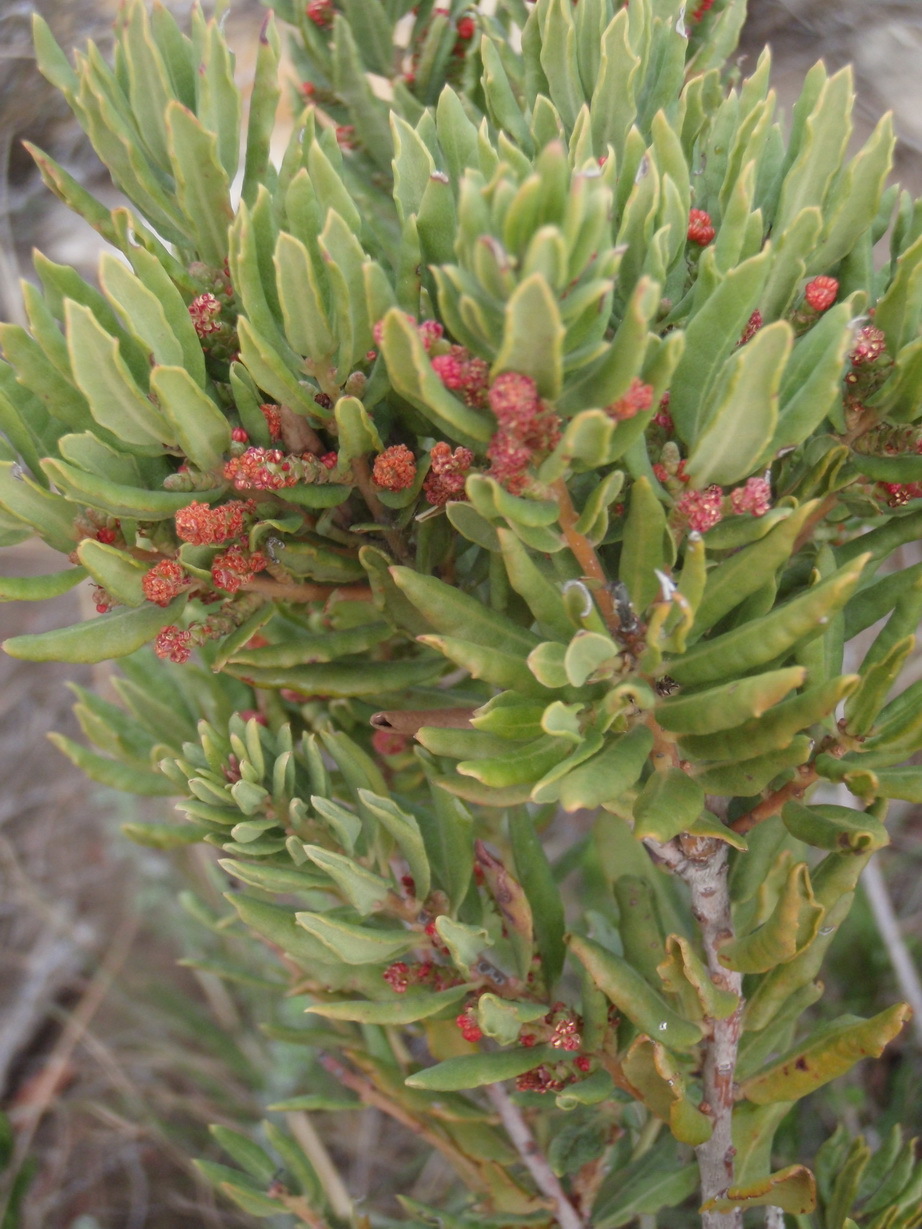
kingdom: Plantae
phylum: Tracheophyta
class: Magnoliopsida
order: Fagales
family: Myricaceae
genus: Morella
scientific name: Morella humilis
